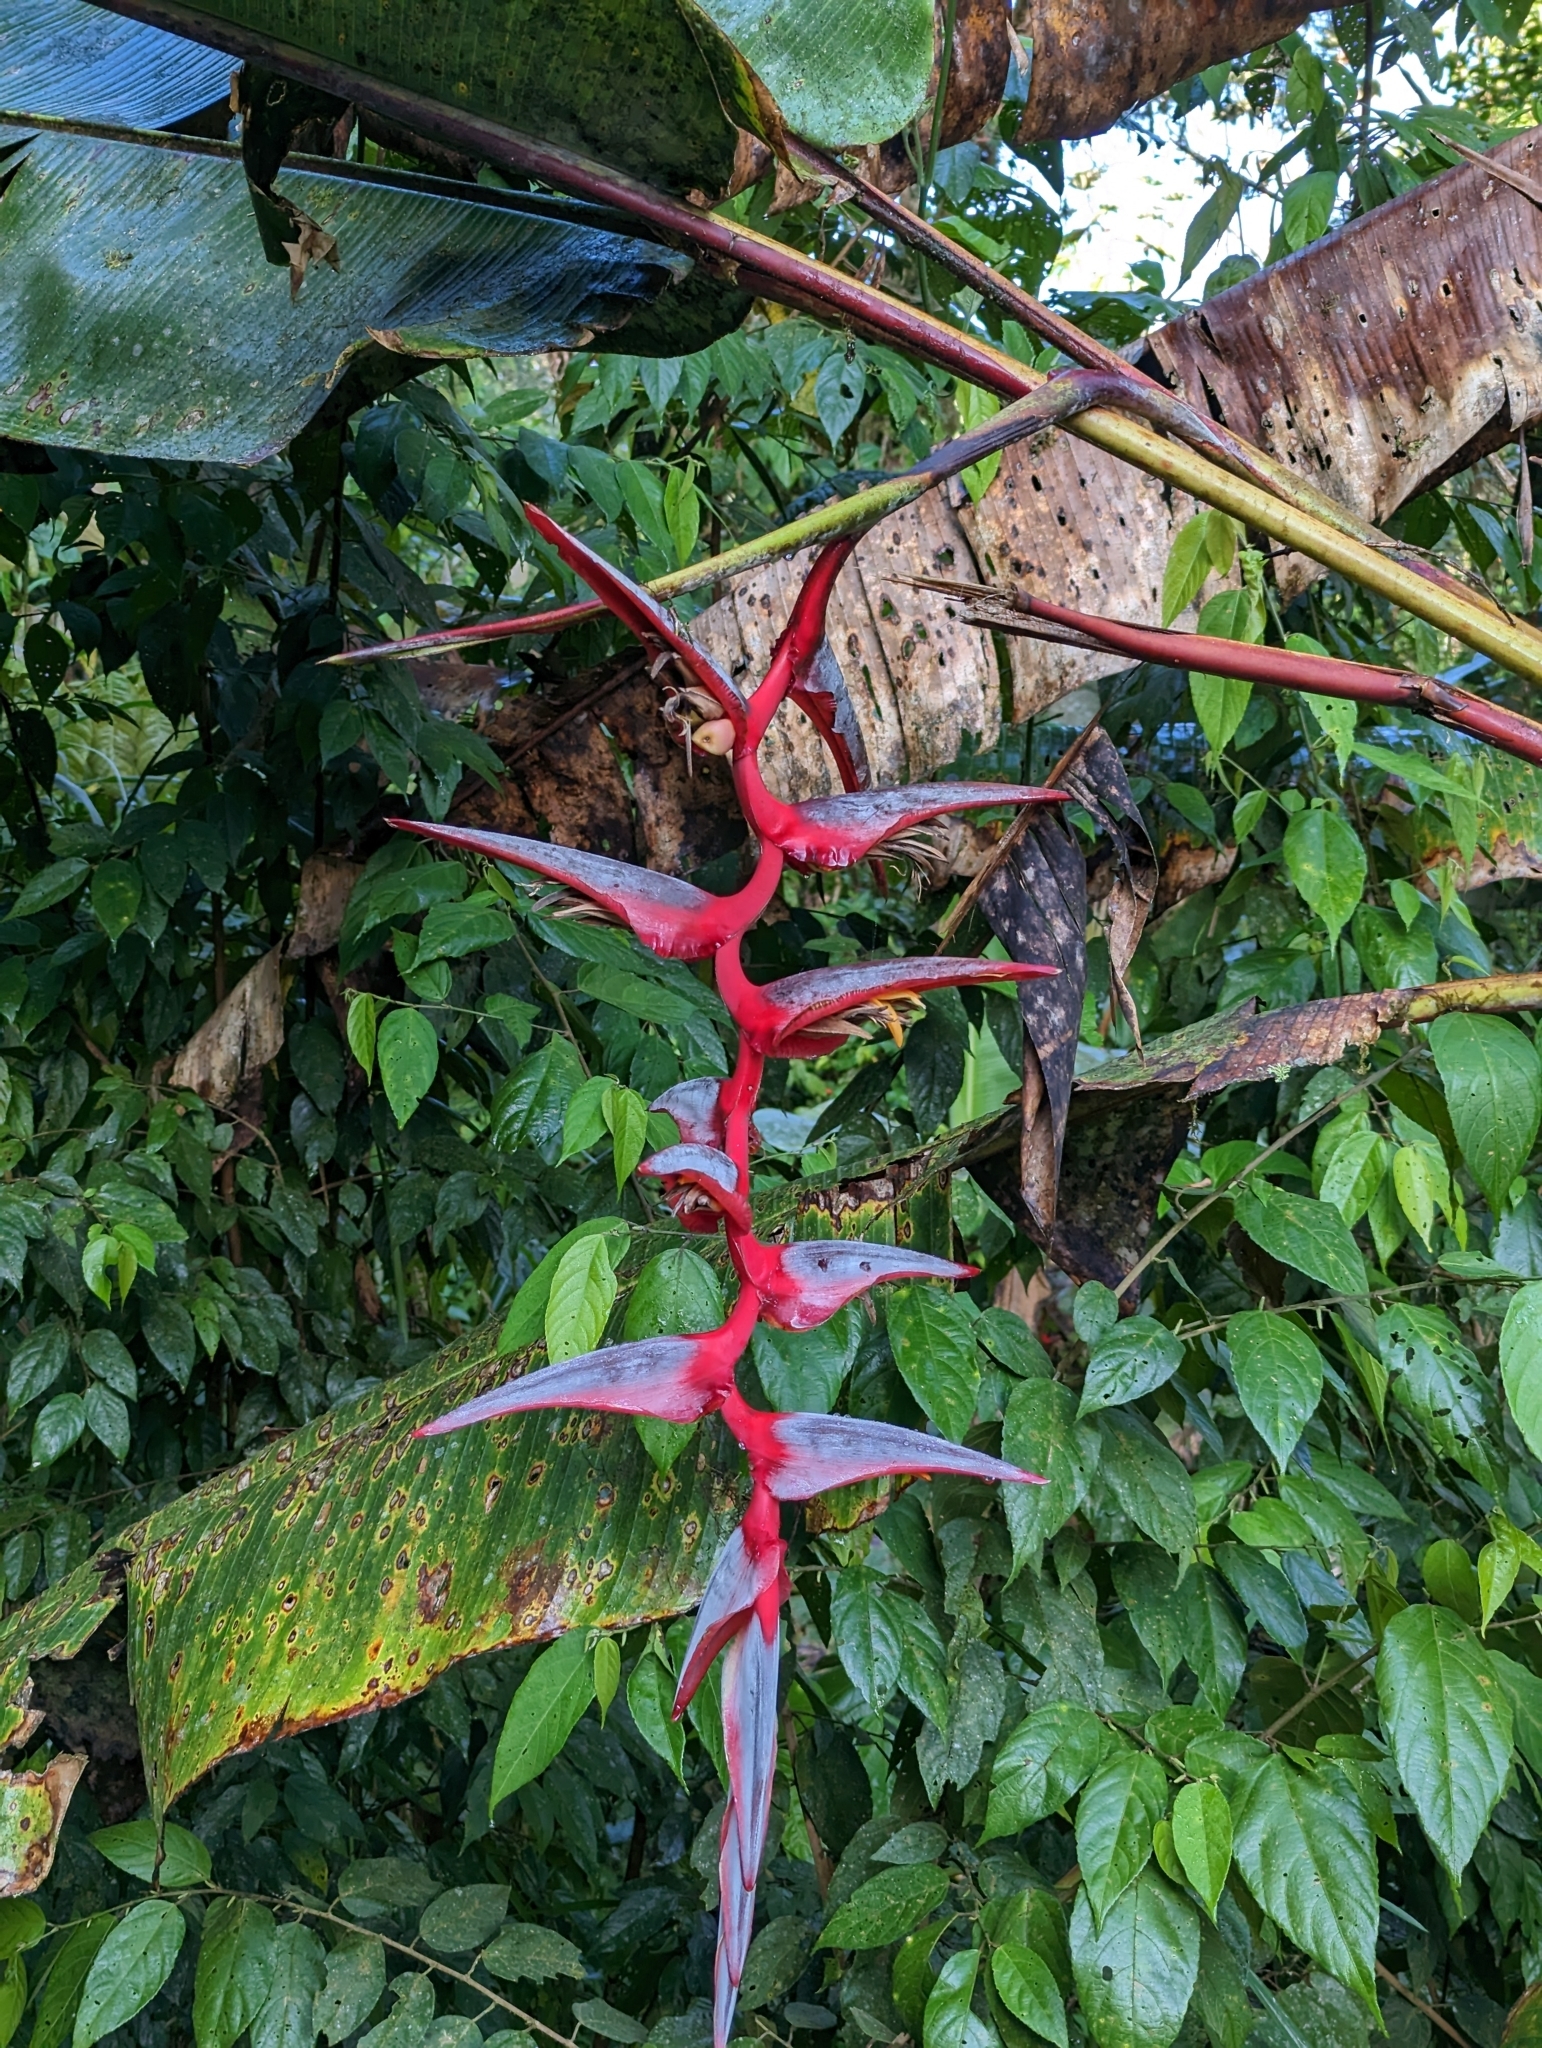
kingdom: Plantae
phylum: Tracheophyta
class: Liliopsida
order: Zingiberales
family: Heliconiaceae
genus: Heliconia
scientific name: Heliconia griggsiana
